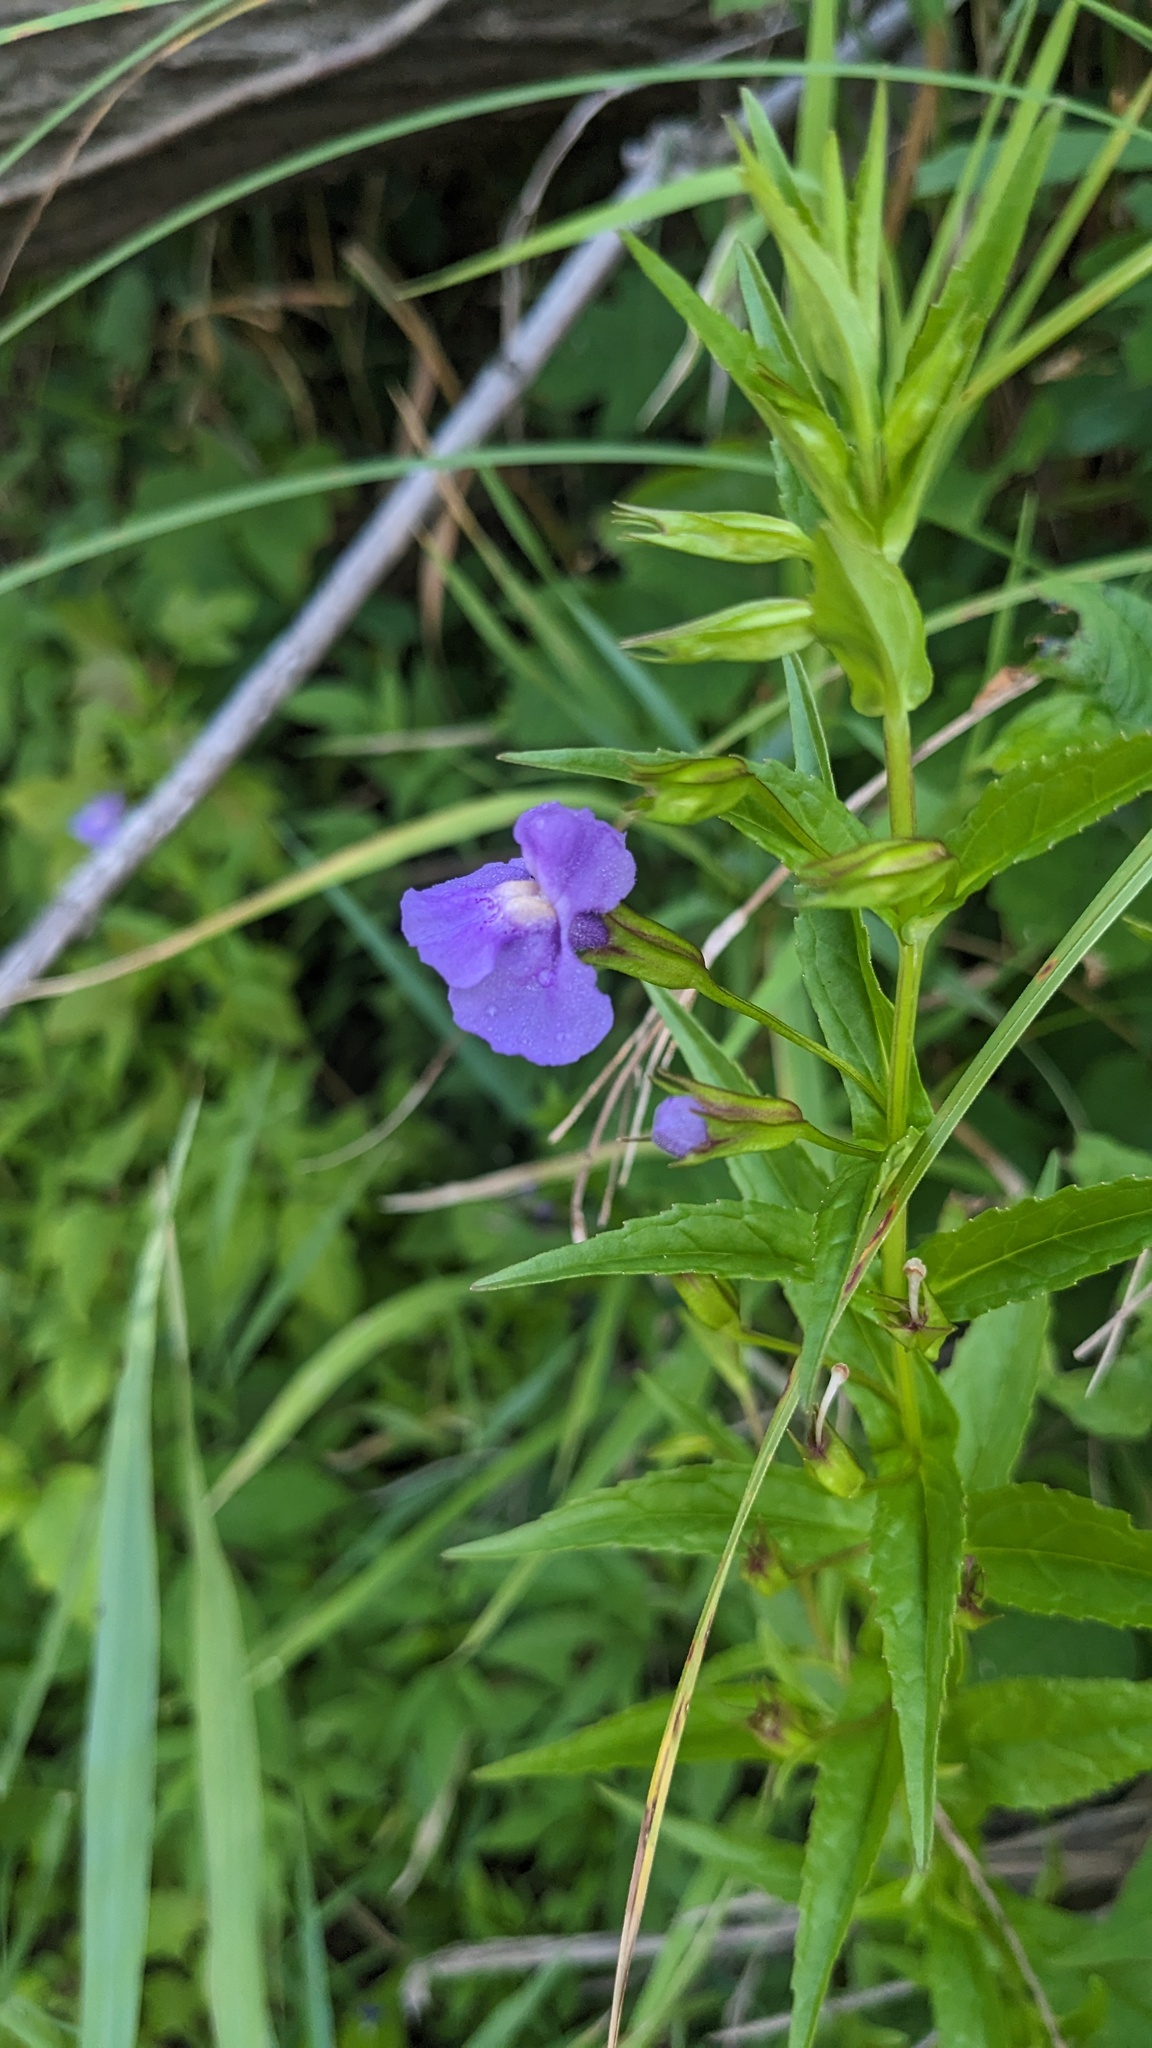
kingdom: Plantae
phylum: Tracheophyta
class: Magnoliopsida
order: Lamiales
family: Phrymaceae
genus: Mimulus
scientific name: Mimulus ringens
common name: Allegheny monkeyflower
